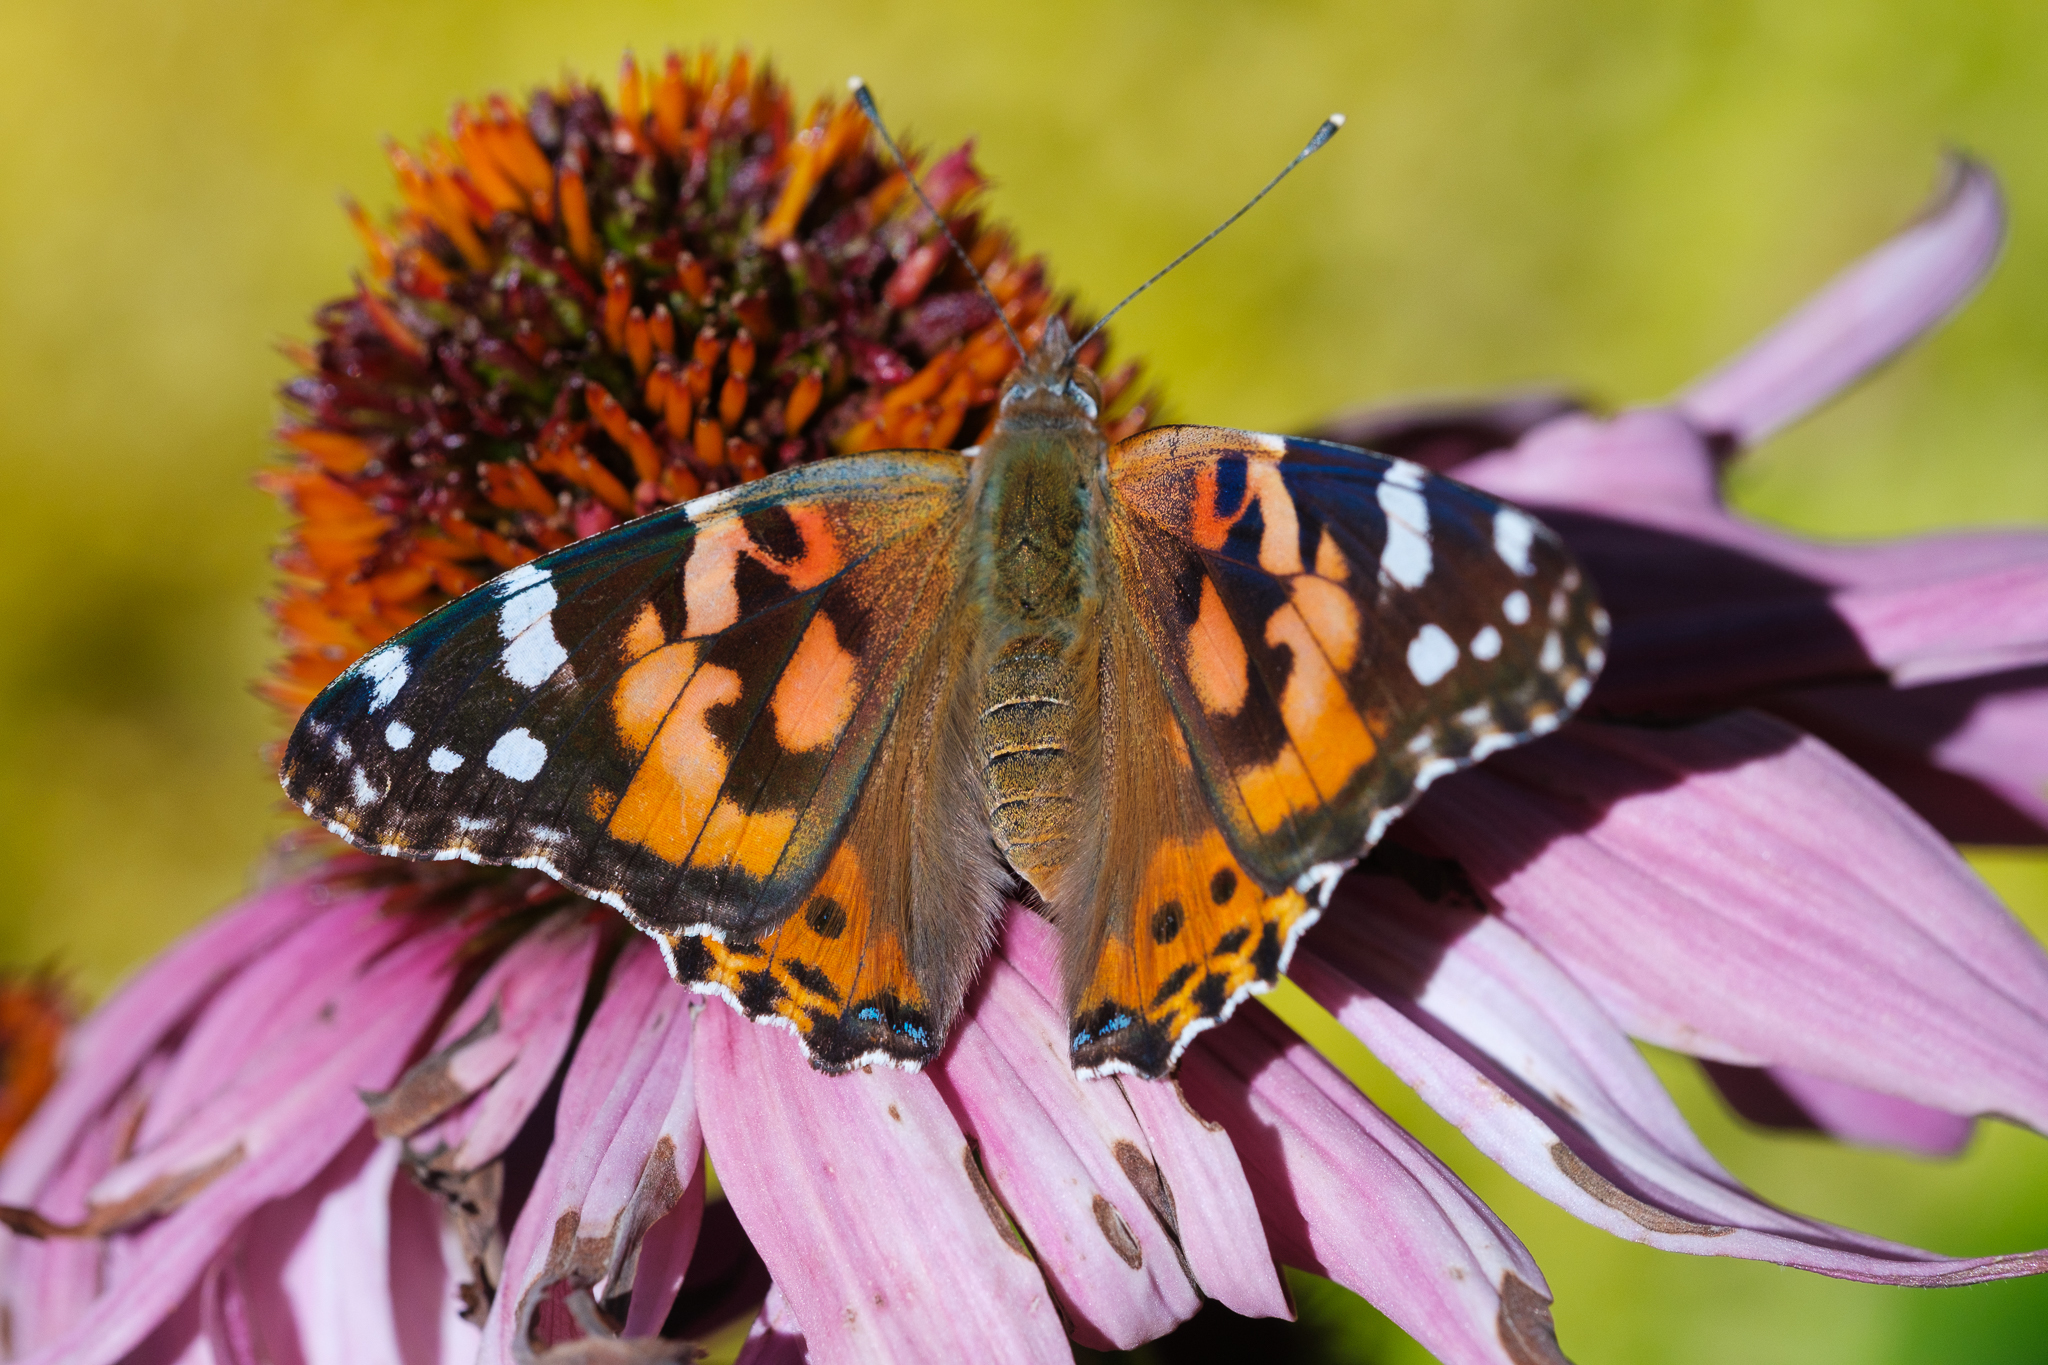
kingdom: Animalia
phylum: Arthropoda
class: Insecta
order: Lepidoptera
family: Nymphalidae
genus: Vanessa
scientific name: Vanessa cardui
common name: Painted lady
